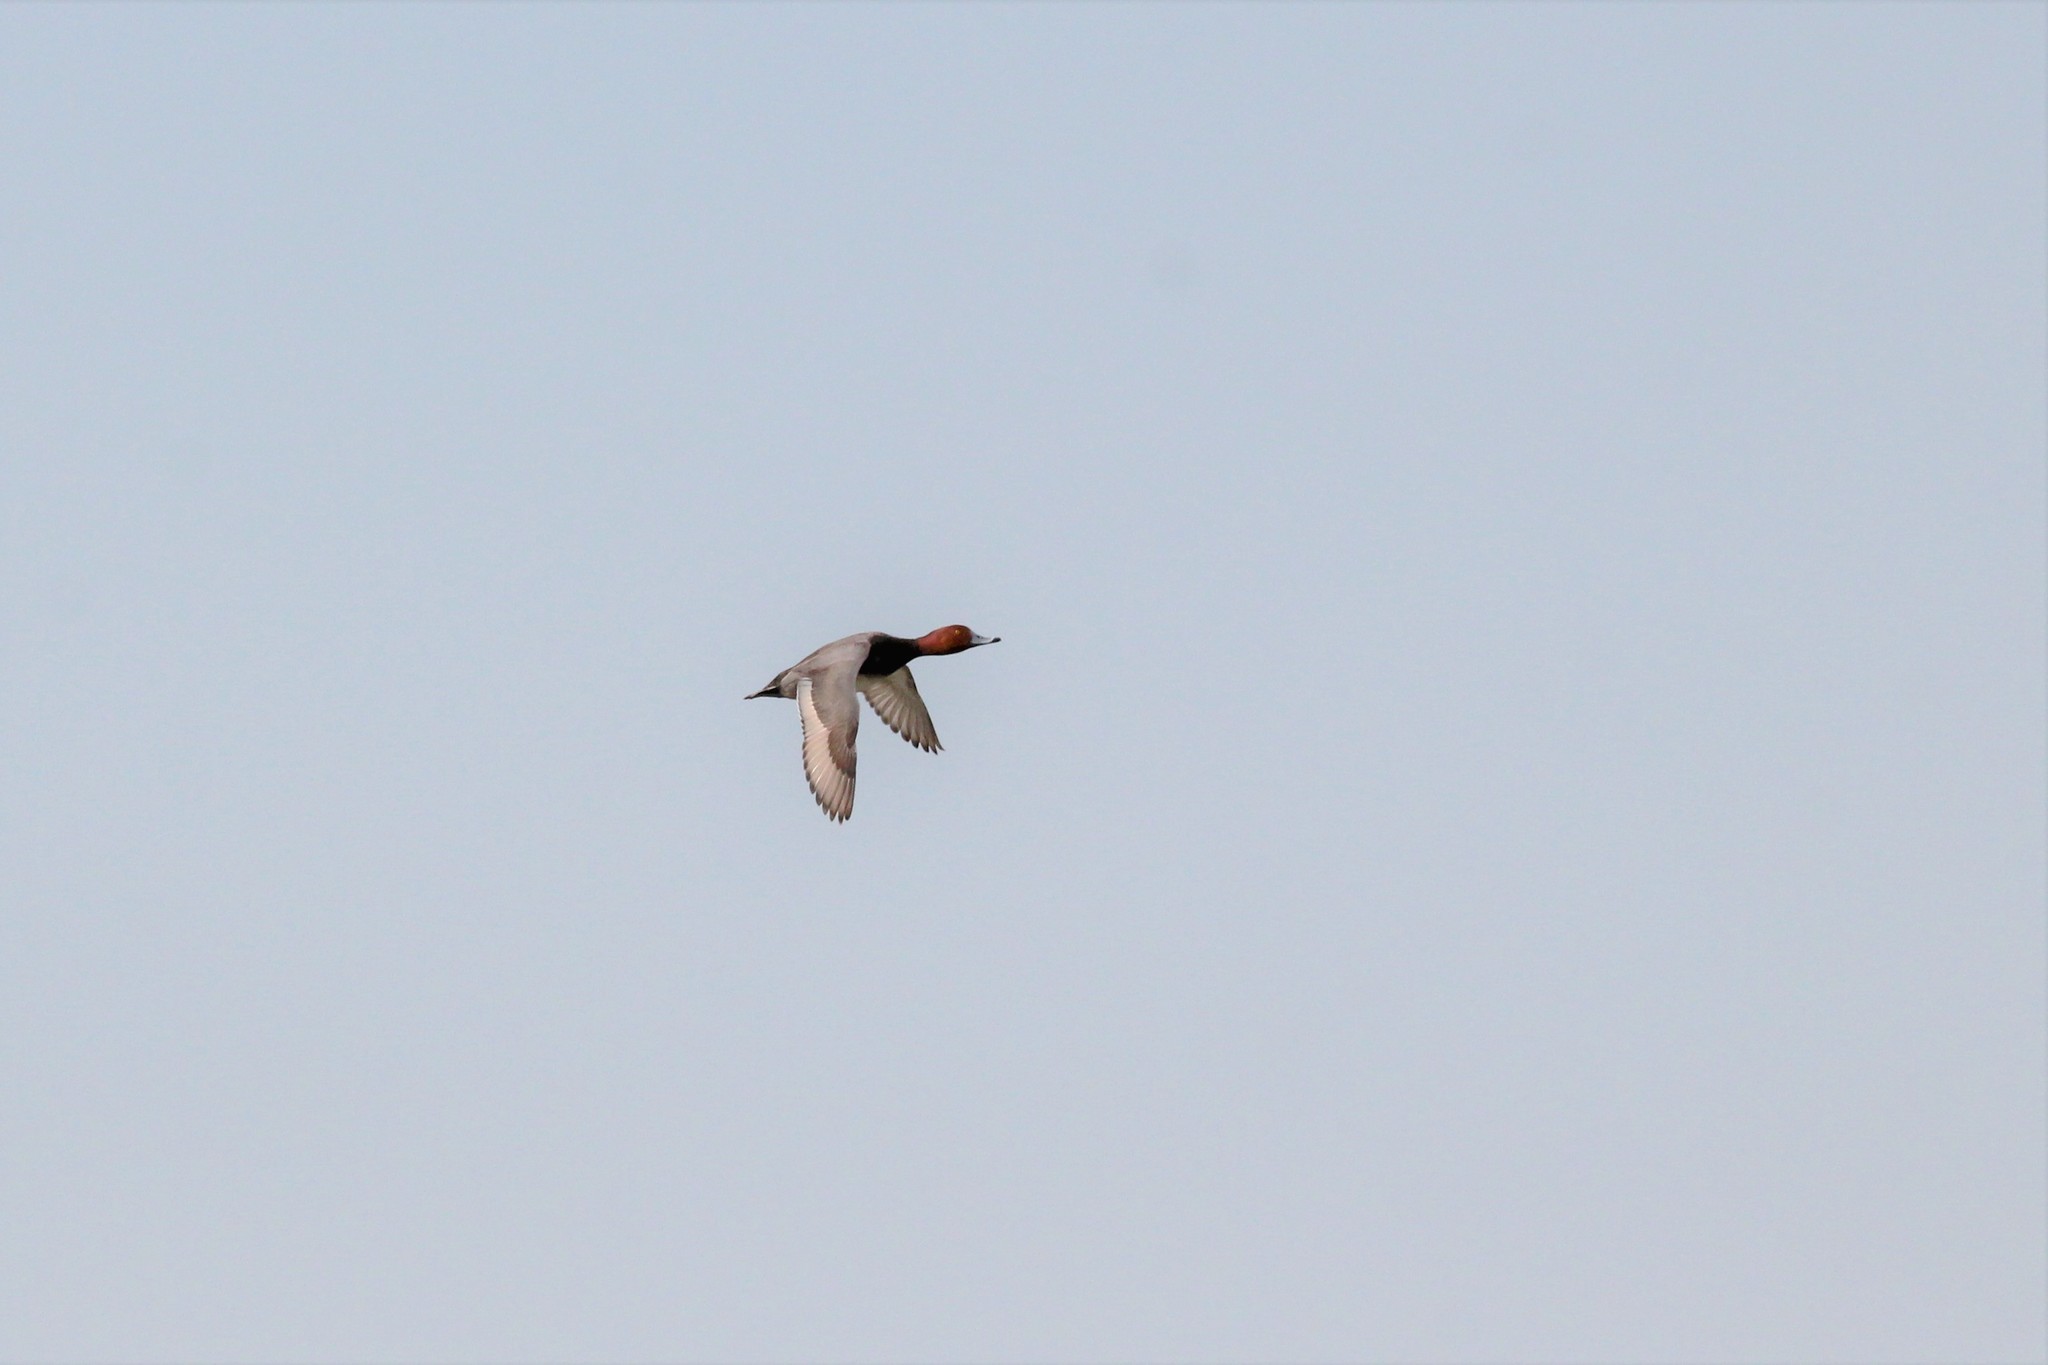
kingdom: Animalia
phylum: Chordata
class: Aves
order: Anseriformes
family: Anatidae
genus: Aythya
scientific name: Aythya americana
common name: Redhead
